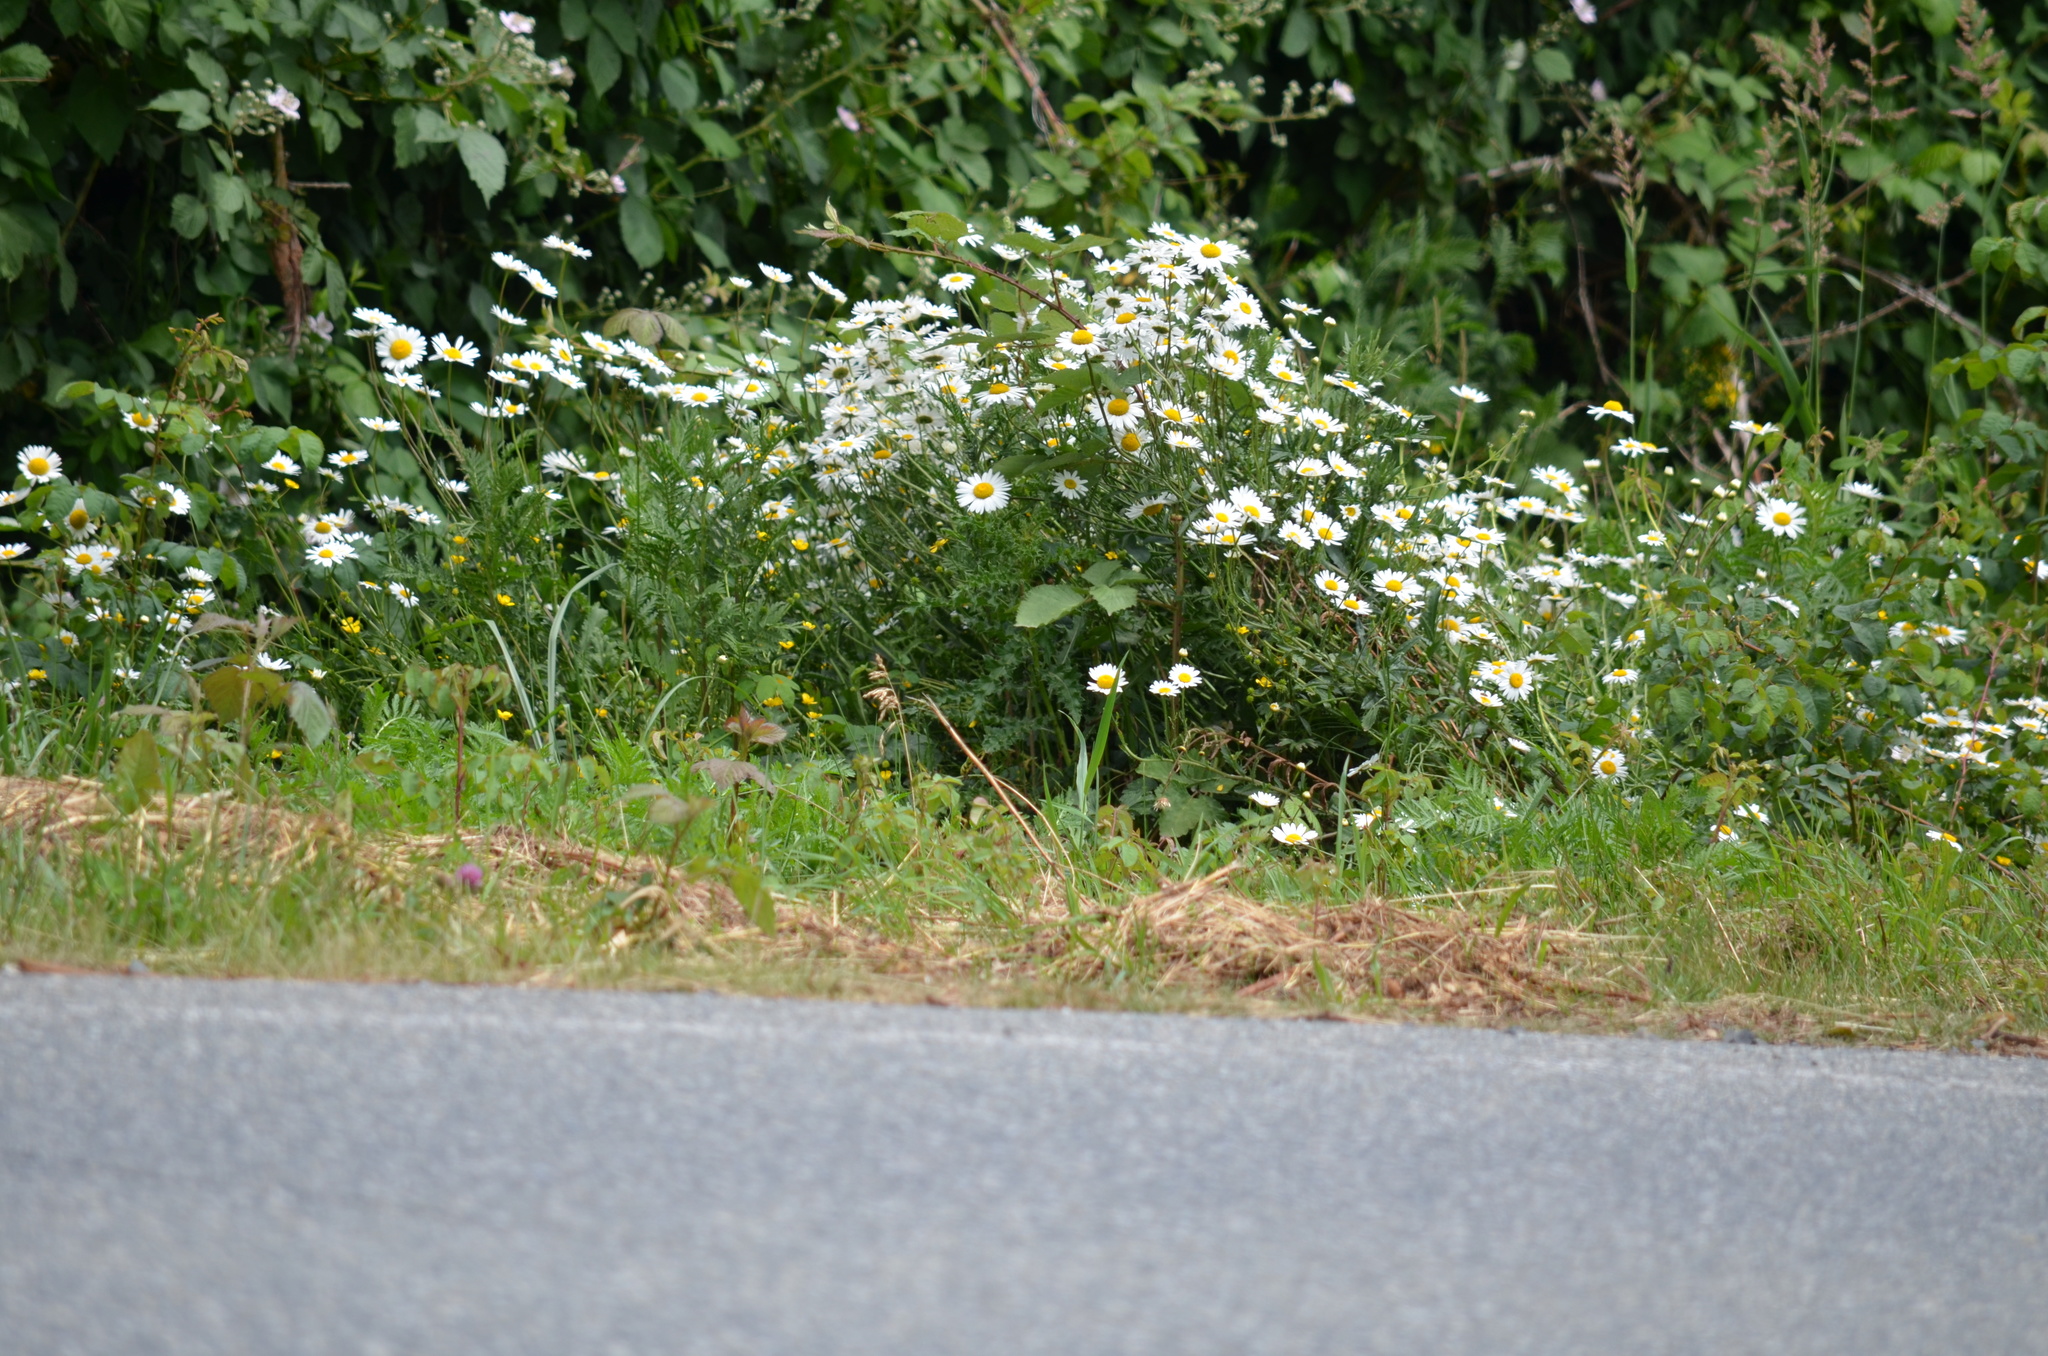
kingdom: Plantae
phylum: Tracheophyta
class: Magnoliopsida
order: Asterales
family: Asteraceae
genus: Leucanthemum
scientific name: Leucanthemum vulgare
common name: Oxeye daisy
